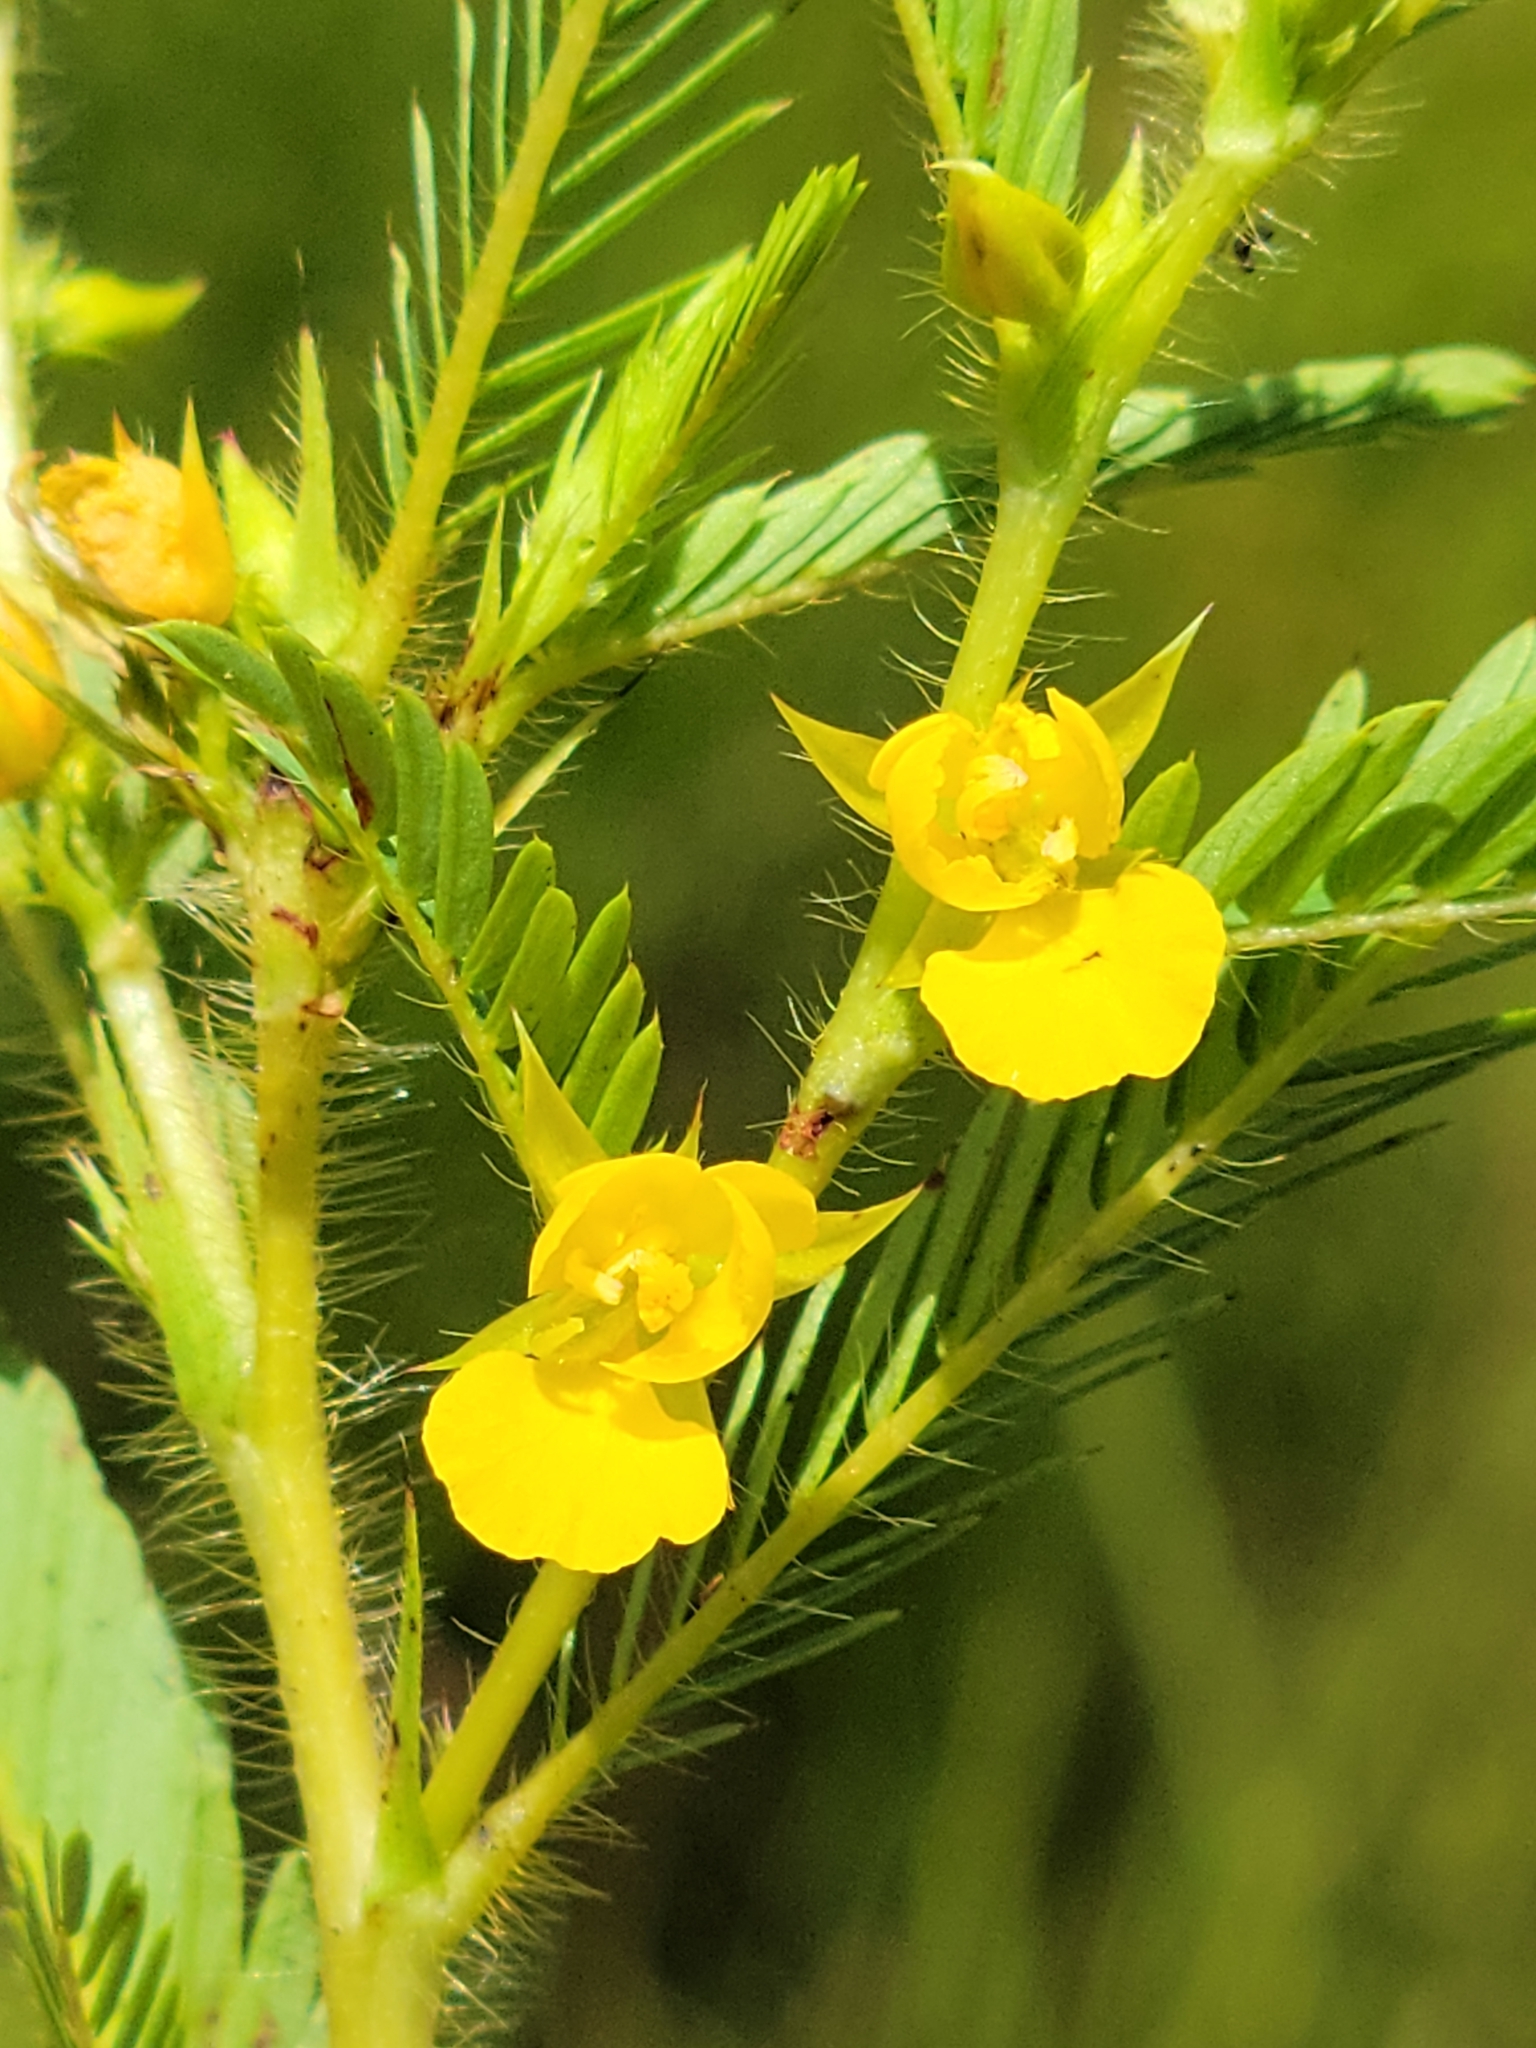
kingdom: Plantae
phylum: Tracheophyta
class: Magnoliopsida
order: Fabales
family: Fabaceae
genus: Chamaecrista
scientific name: Chamaecrista nictitans
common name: Sensitive cassia
